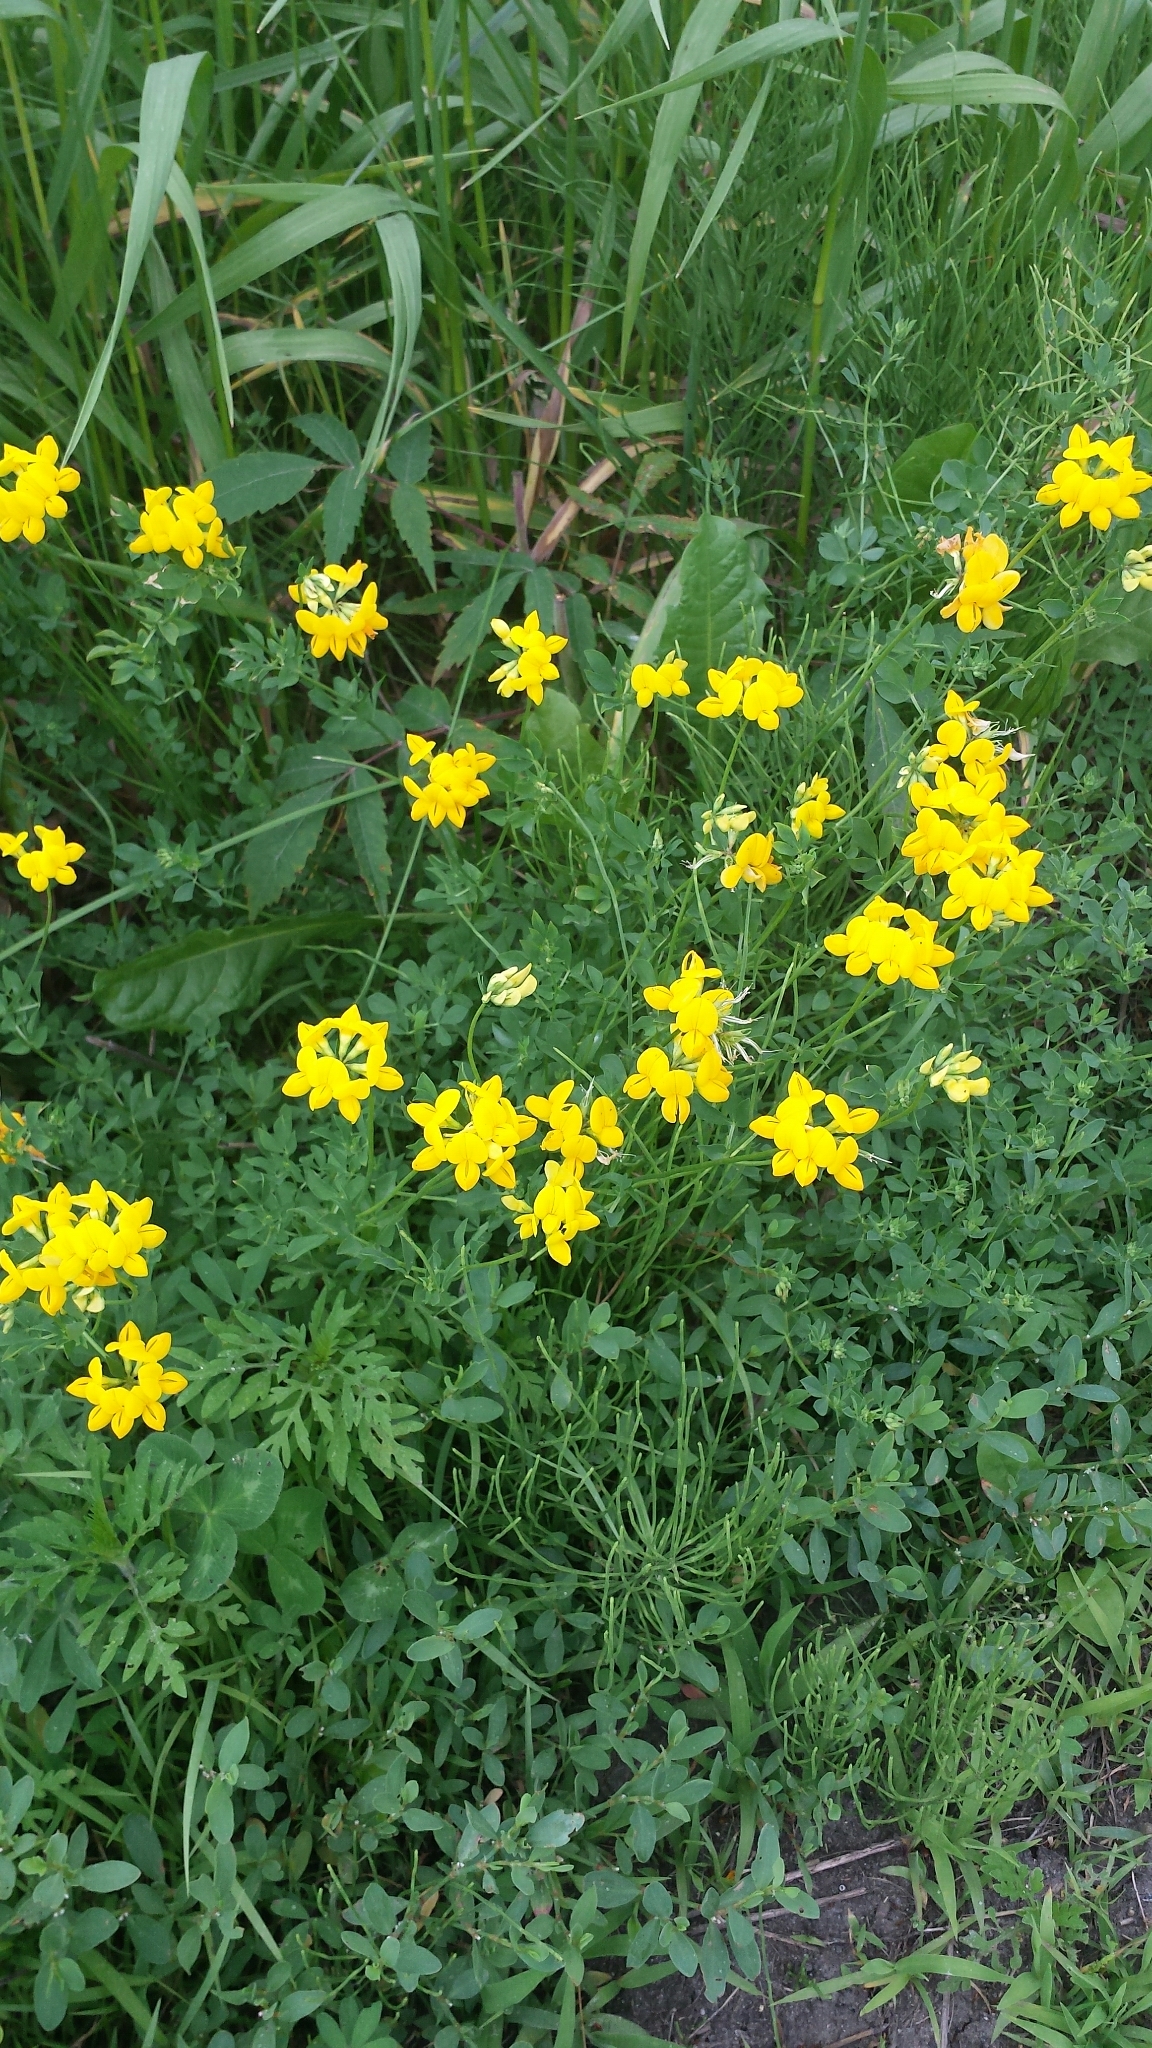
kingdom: Plantae
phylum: Tracheophyta
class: Magnoliopsida
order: Fabales
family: Fabaceae
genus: Lotus
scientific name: Lotus corniculatus
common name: Common bird's-foot-trefoil
